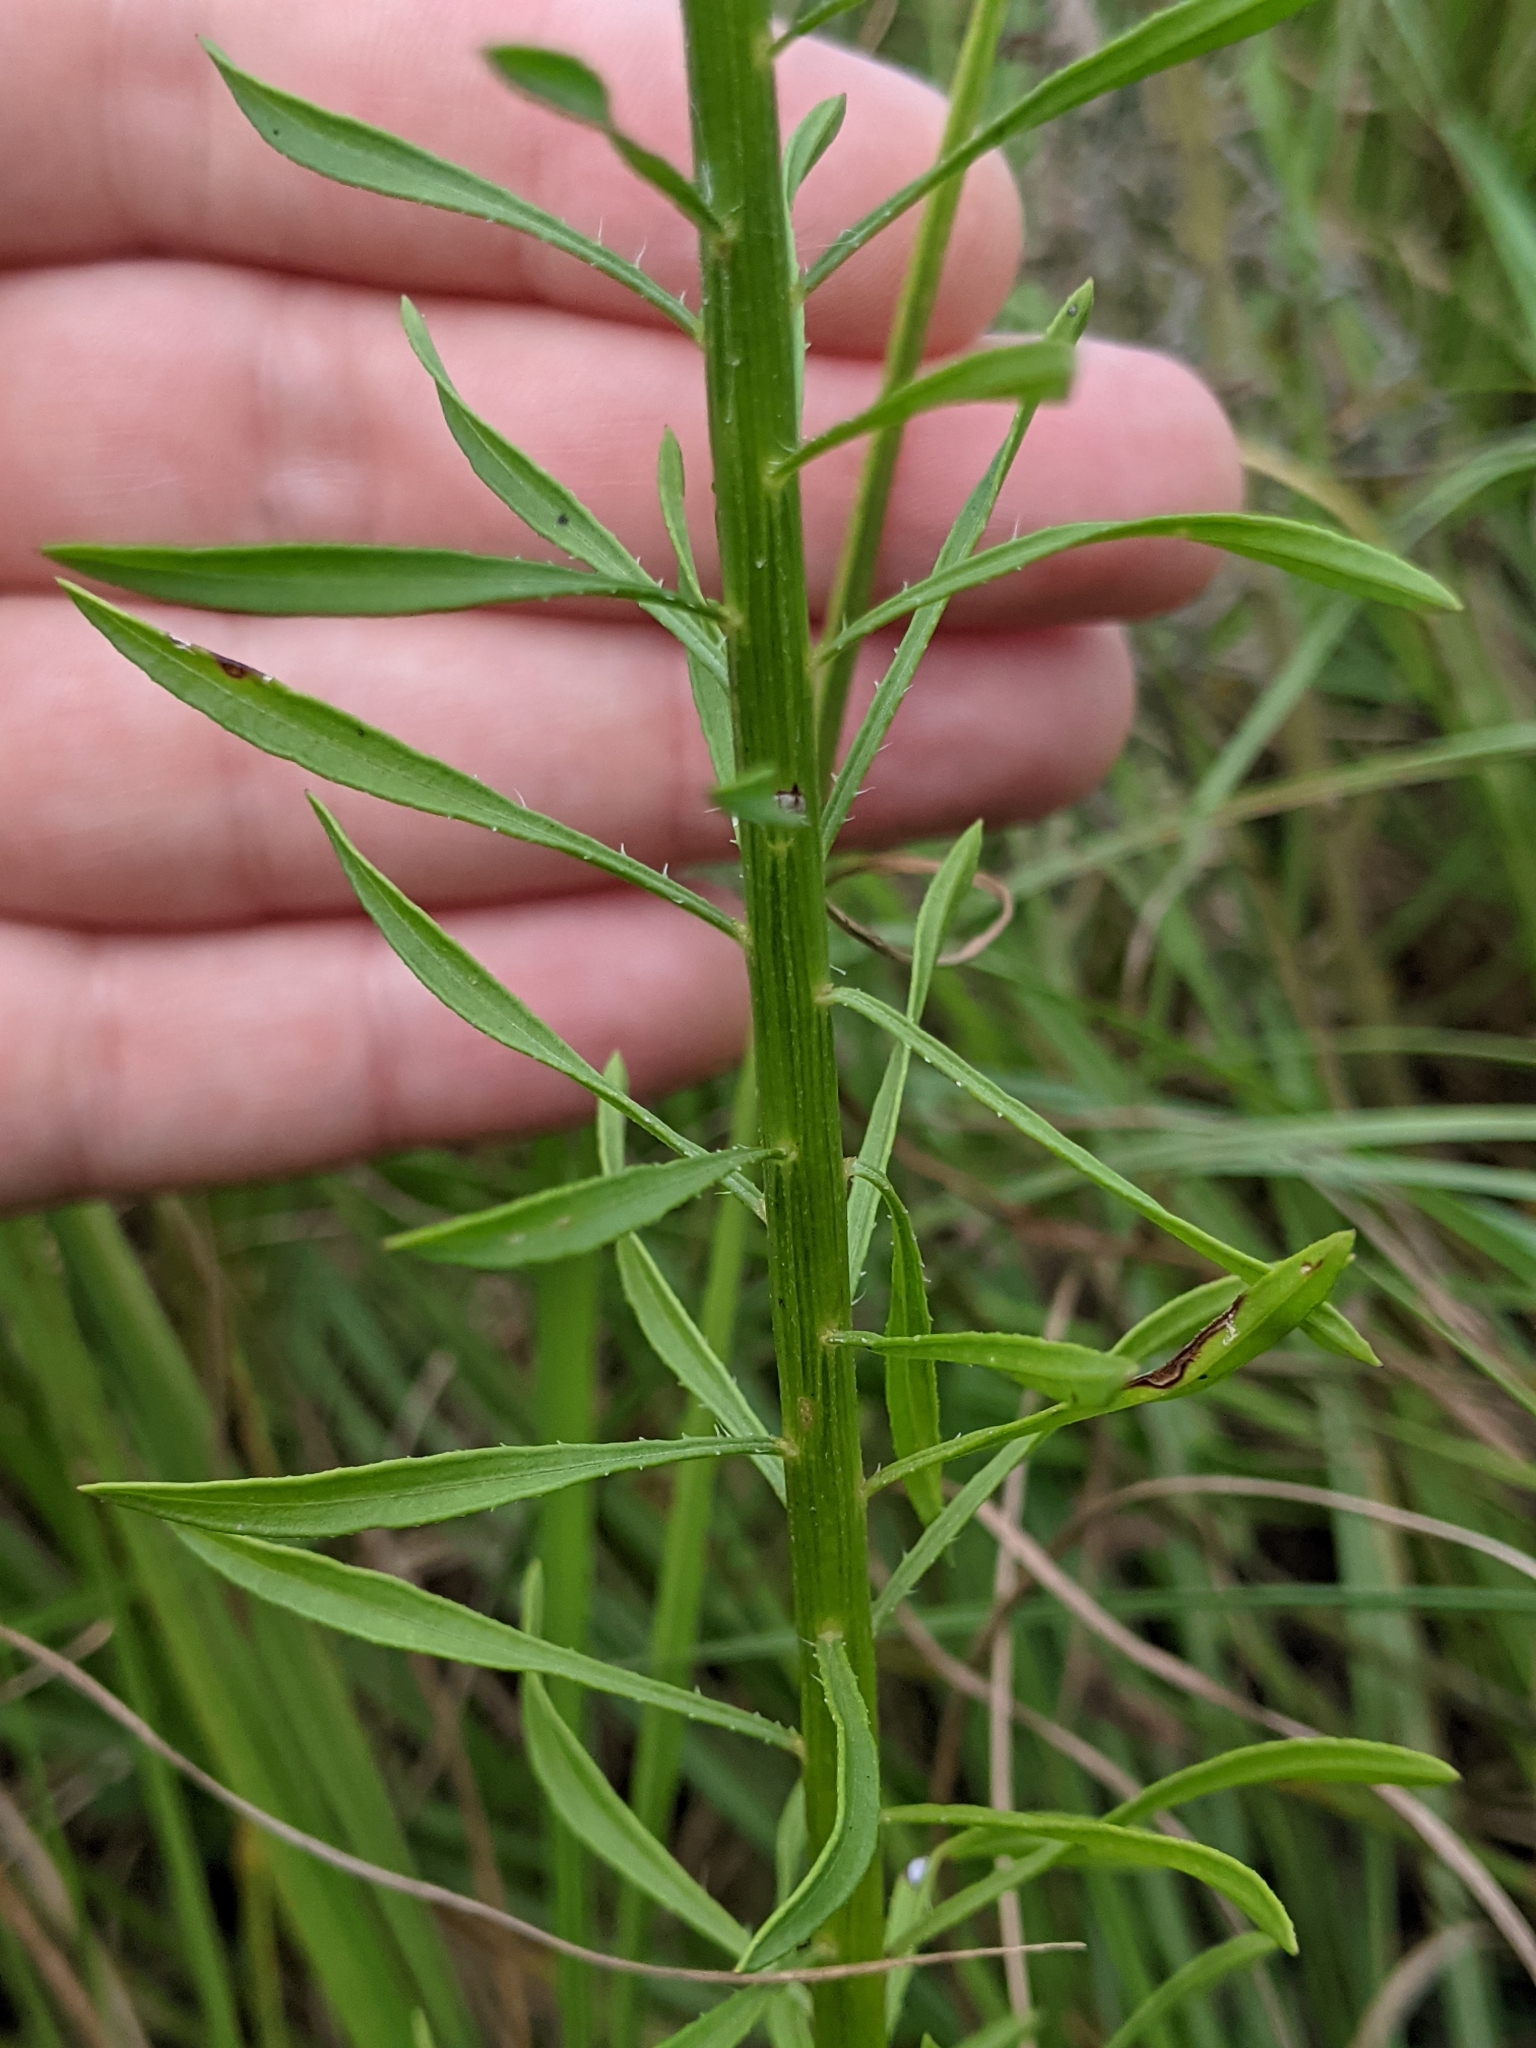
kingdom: Plantae
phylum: Tracheophyta
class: Magnoliopsida
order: Asterales
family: Asteraceae
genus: Erigeron
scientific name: Erigeron canadensis
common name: Canadian fleabane
